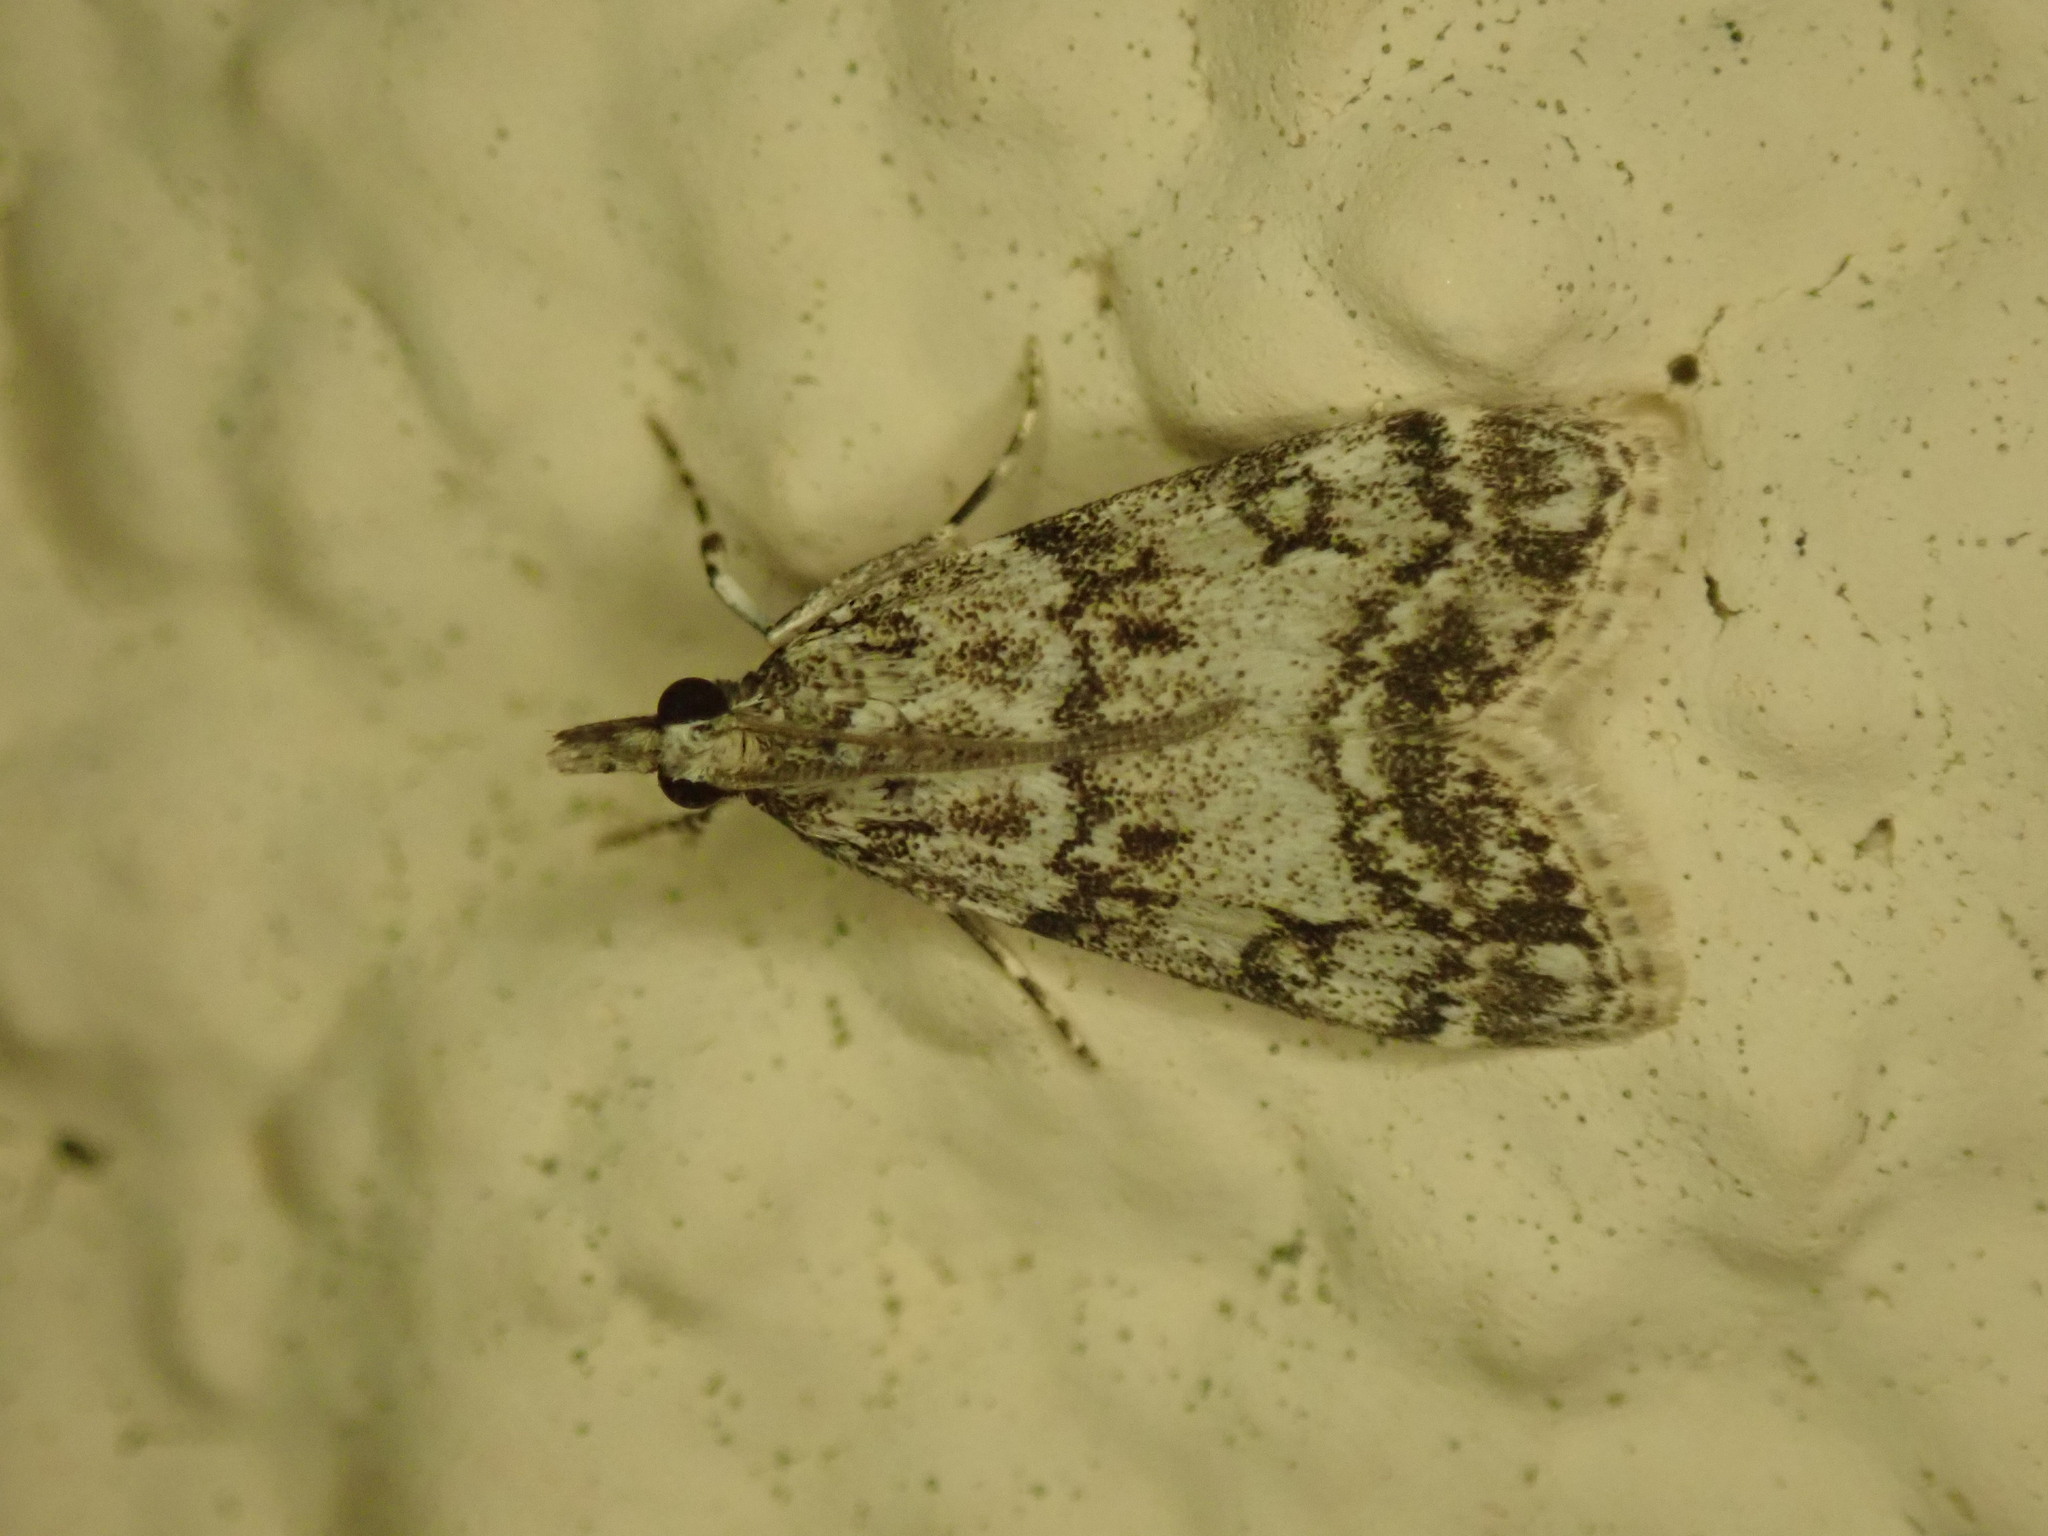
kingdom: Animalia
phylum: Arthropoda
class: Insecta
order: Lepidoptera
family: Crambidae
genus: Eudonia
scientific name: Eudonia lacustrata
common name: Little grey
